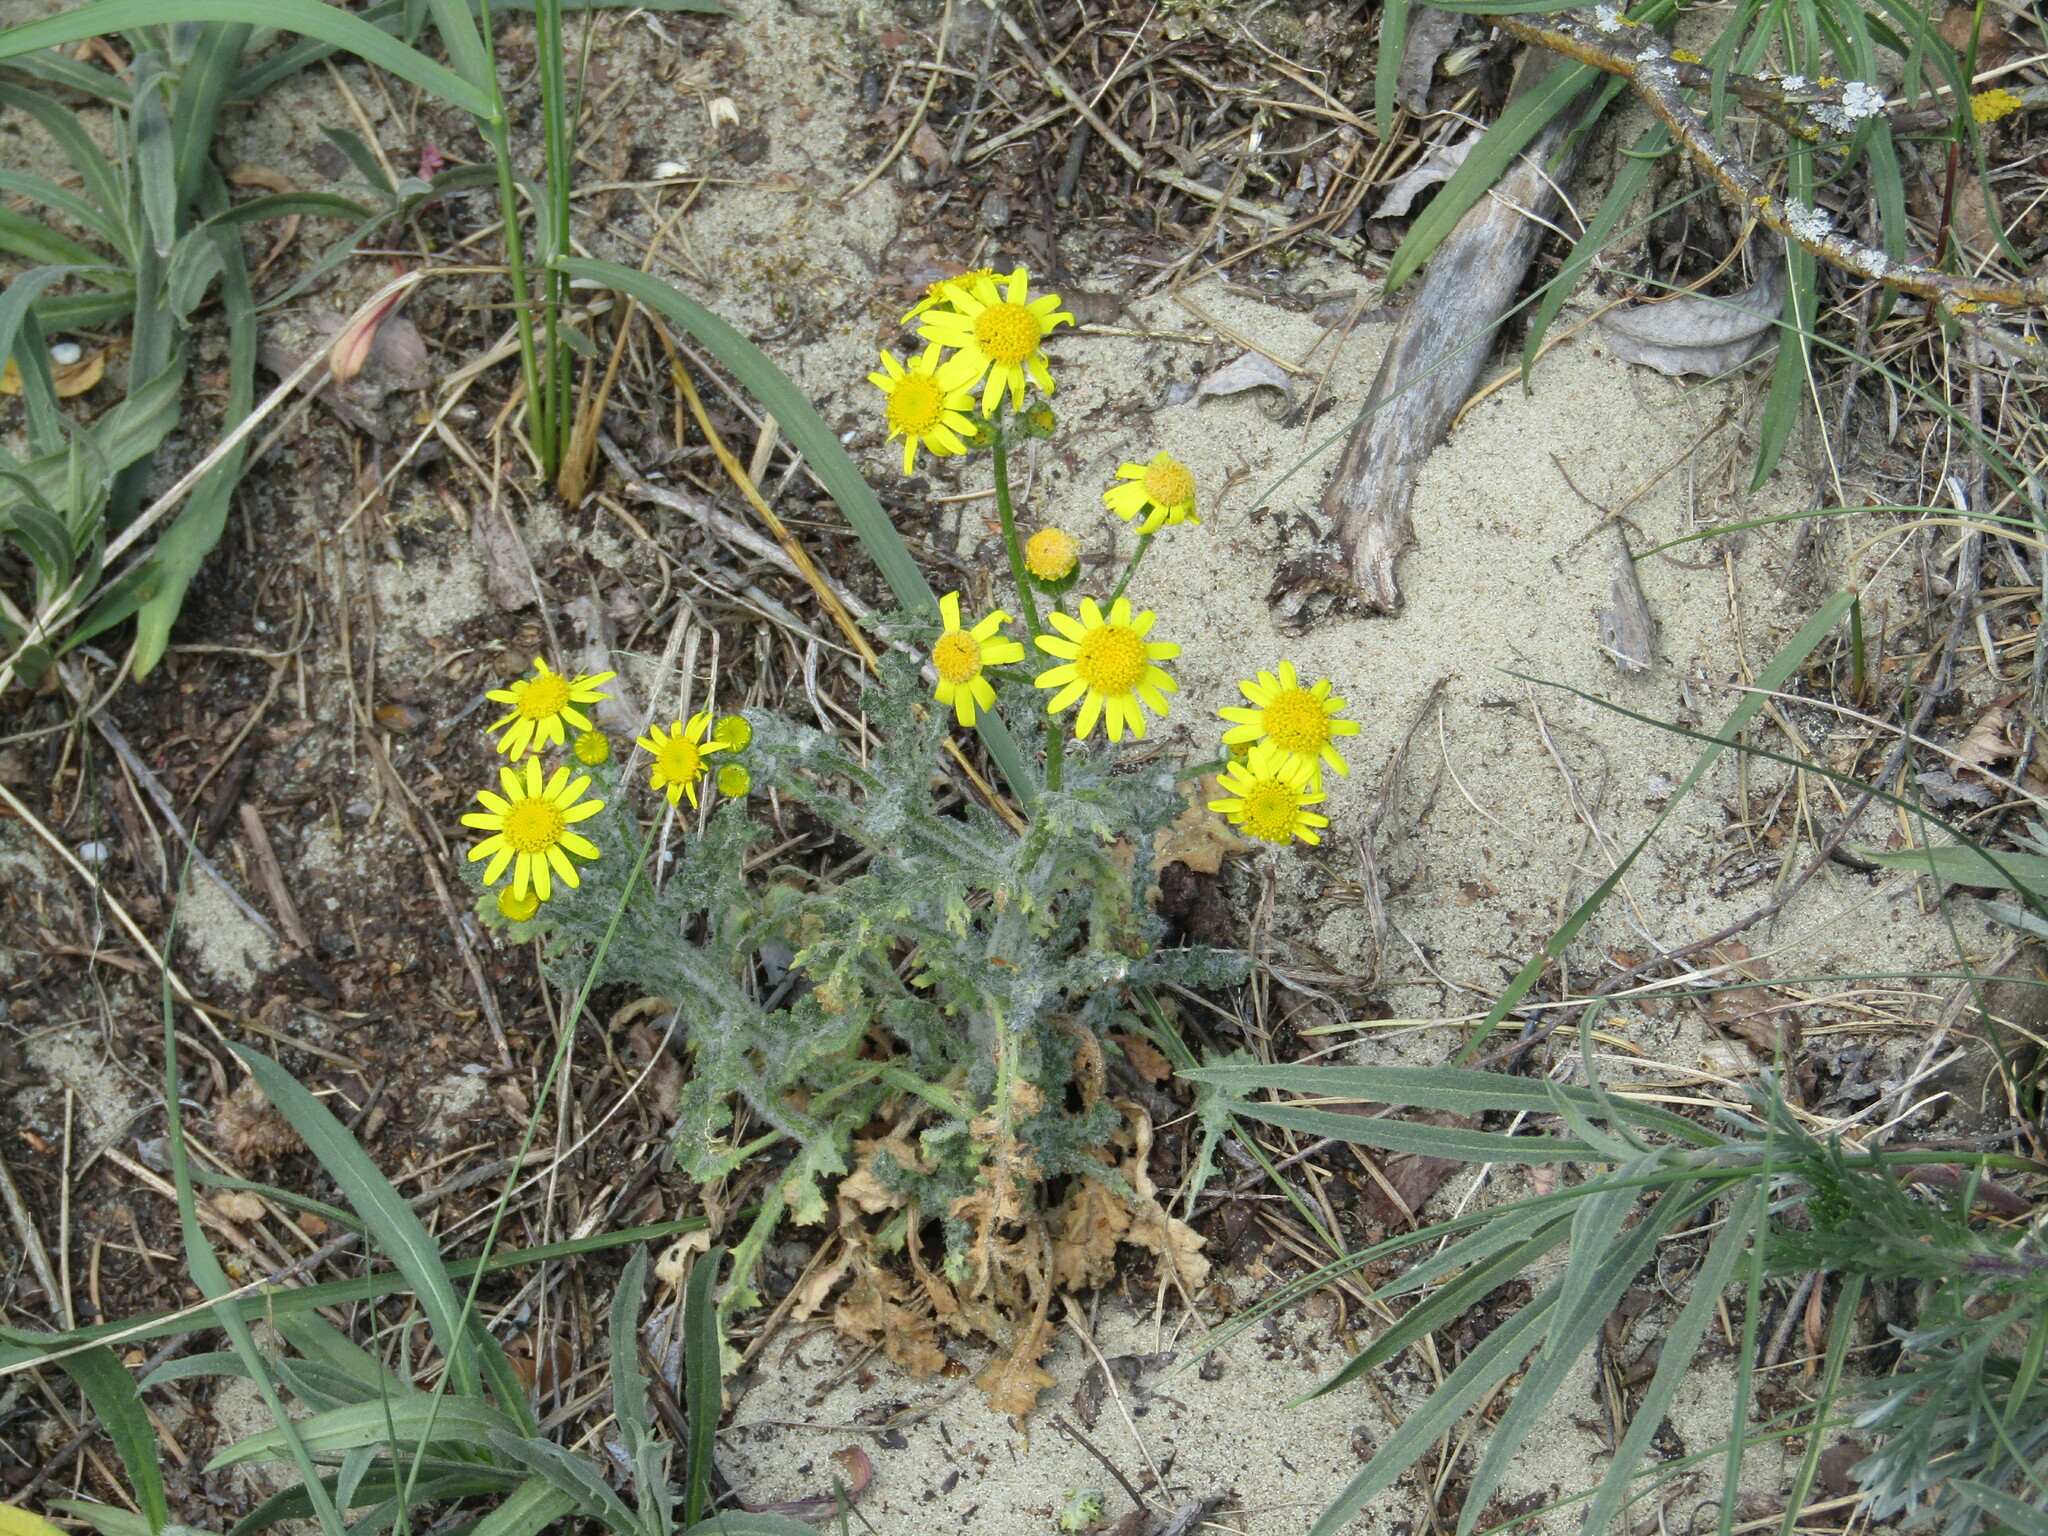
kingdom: Plantae
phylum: Tracheophyta
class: Magnoliopsida
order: Asterales
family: Asteraceae
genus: Senecio
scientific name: Senecio vernalis
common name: Eastern groundsel
